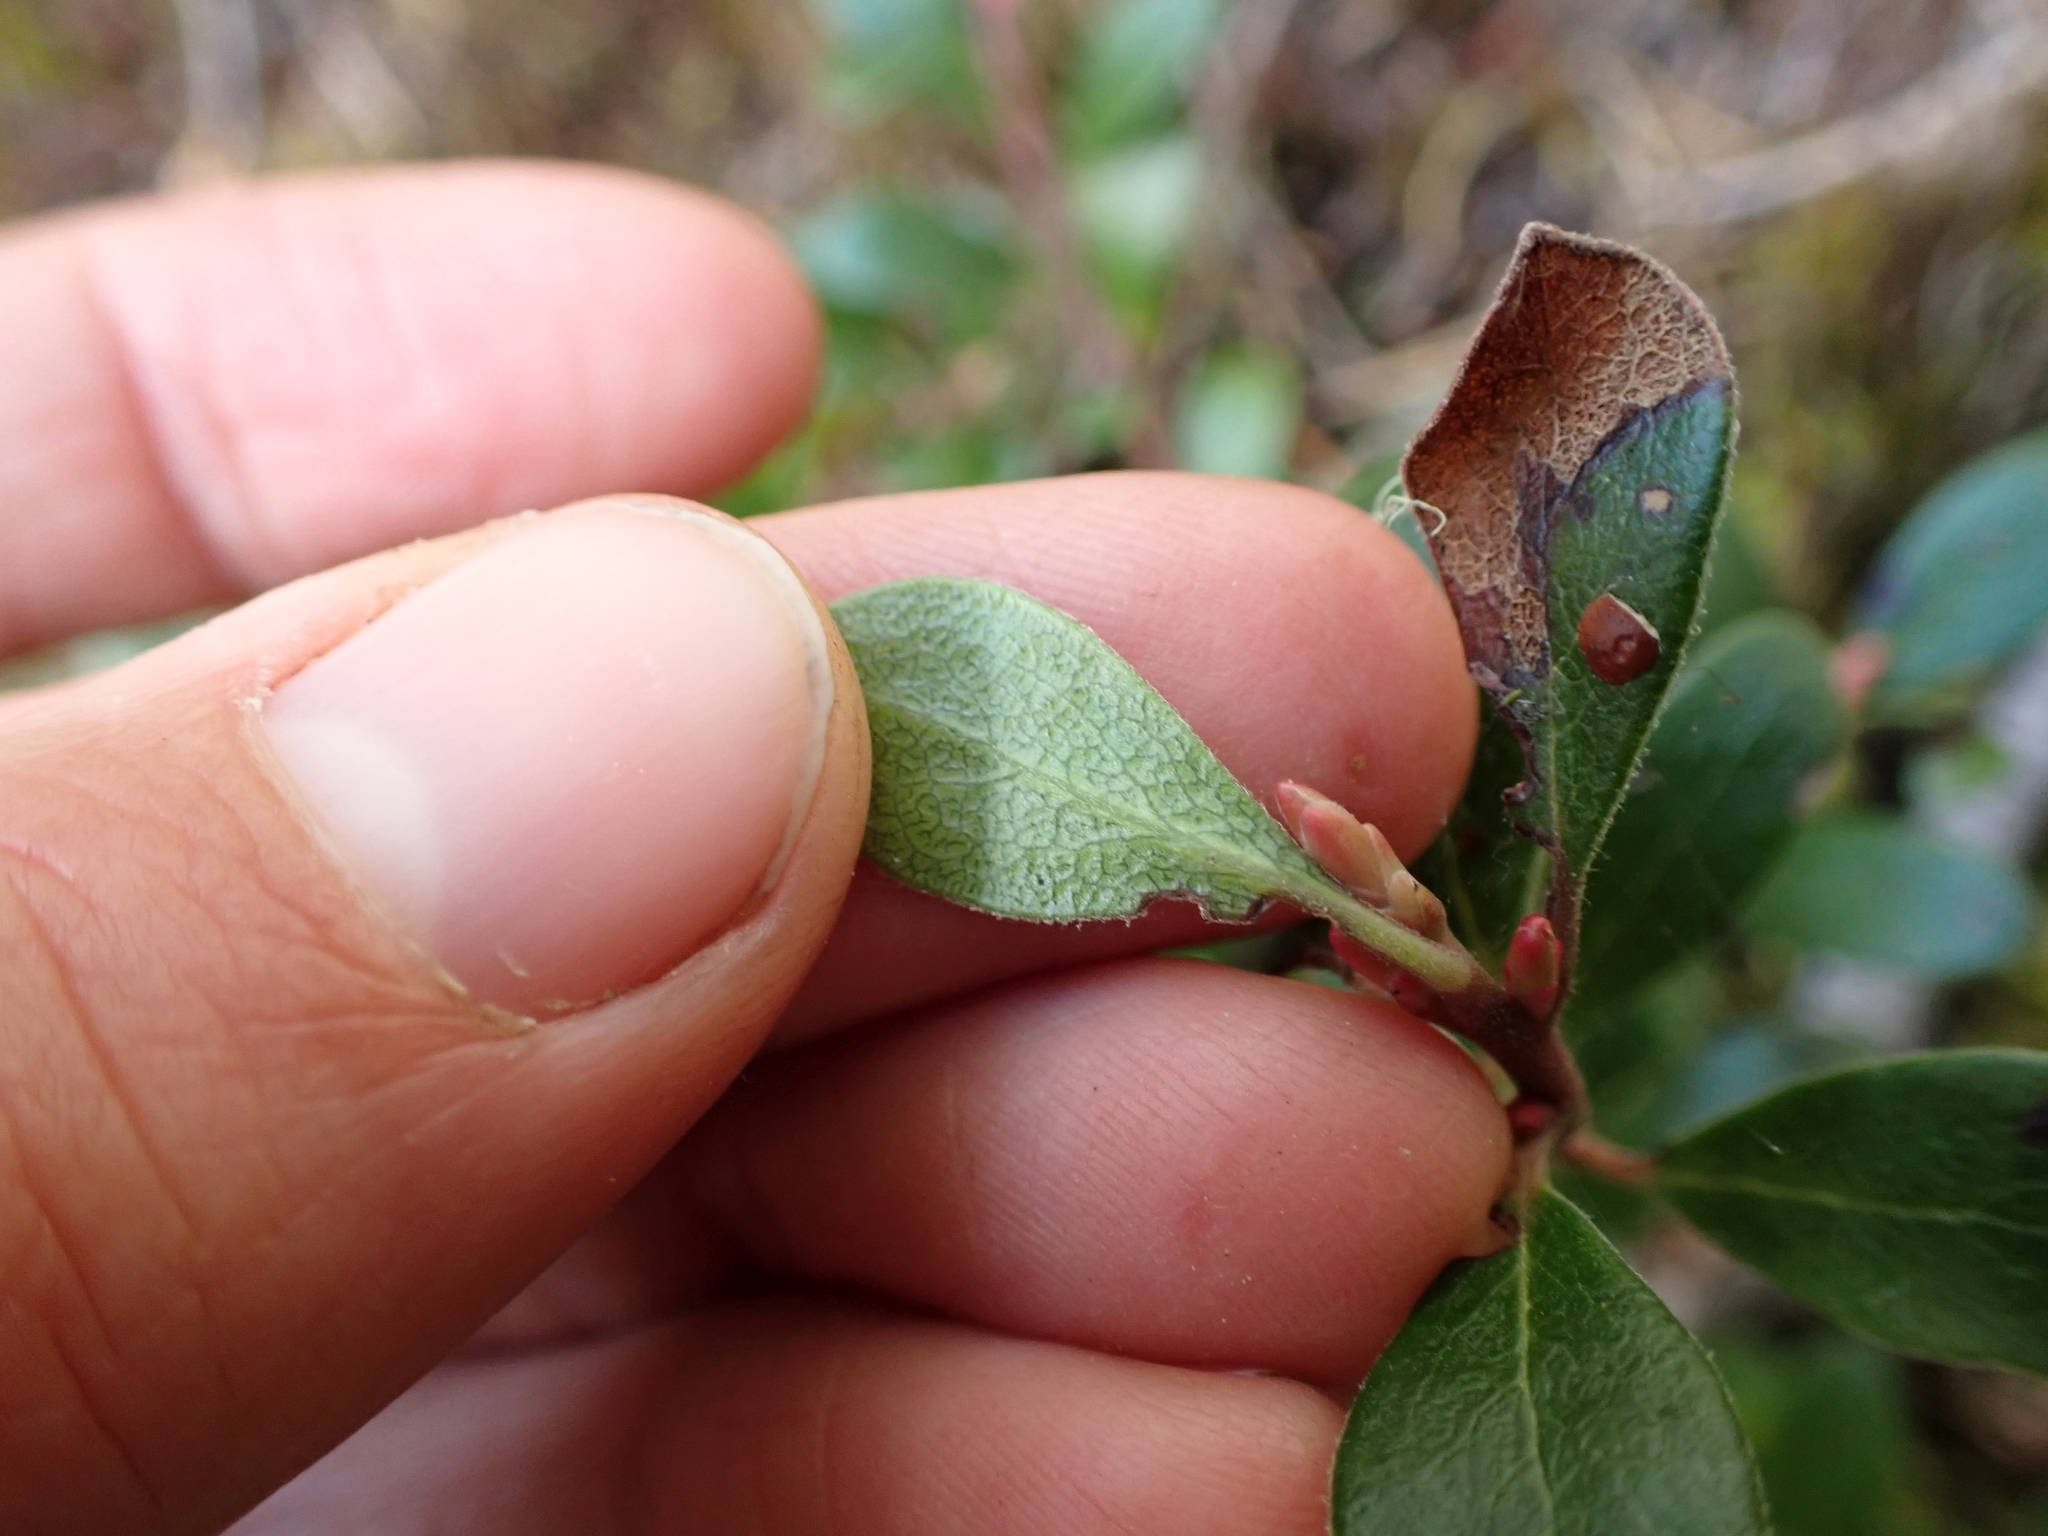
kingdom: Plantae
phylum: Tracheophyta
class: Magnoliopsida
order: Ericales
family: Ericaceae
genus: Arctostaphylos
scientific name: Arctostaphylos uva-ursi
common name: Bearberry
